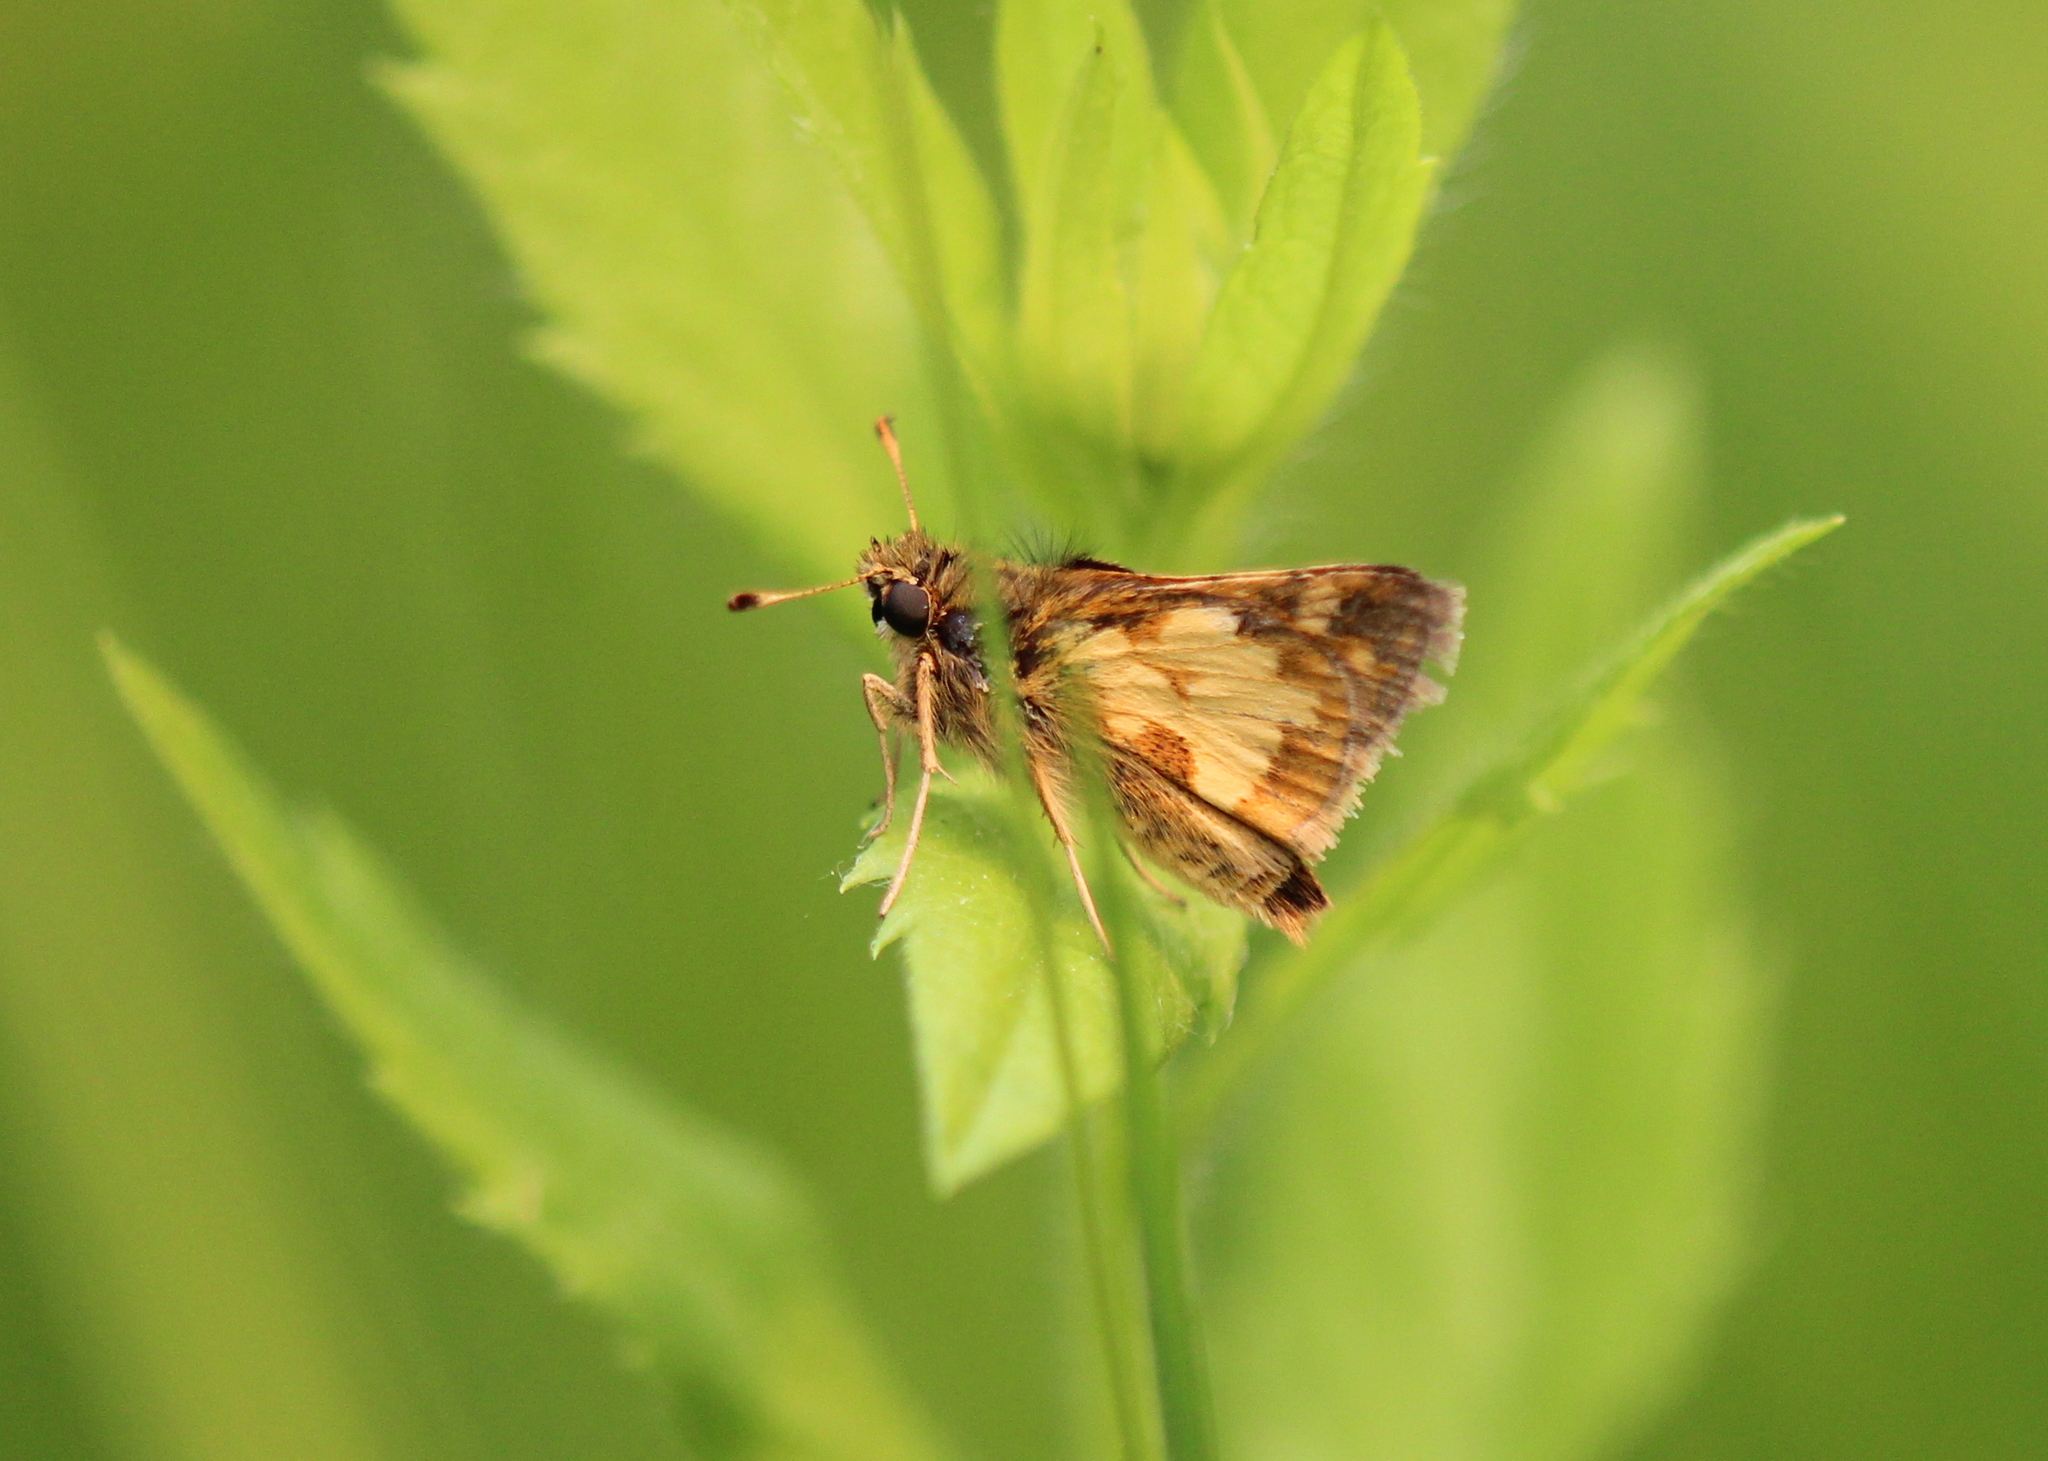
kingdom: Animalia
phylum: Arthropoda
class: Insecta
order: Lepidoptera
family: Hesperiidae
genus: Polites
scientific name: Polites coras
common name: Peck's skipper
